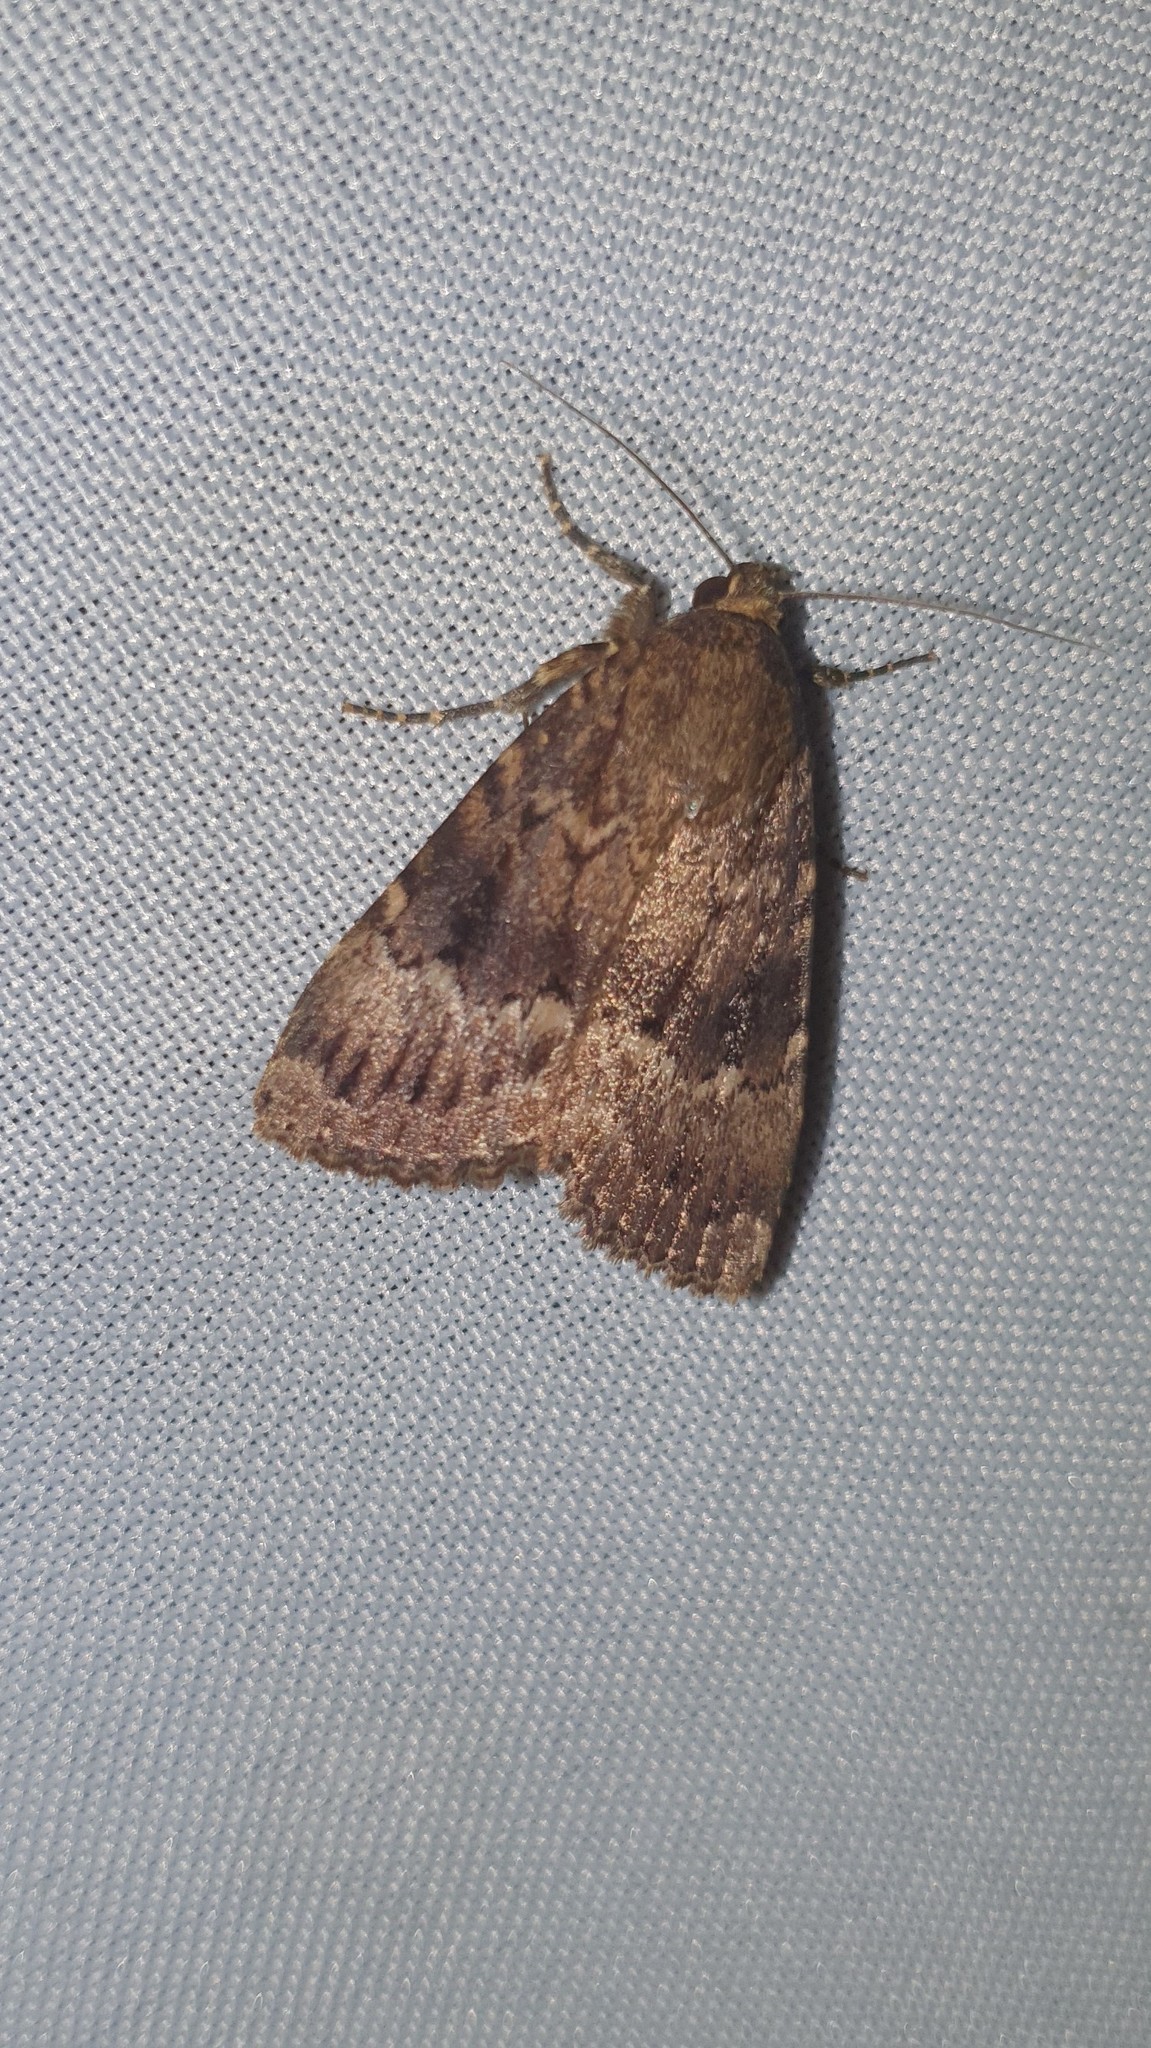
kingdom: Animalia
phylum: Arthropoda
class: Insecta
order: Lepidoptera
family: Noctuidae
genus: Amphipyra
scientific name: Amphipyra pyramidea
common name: Copper underwing
